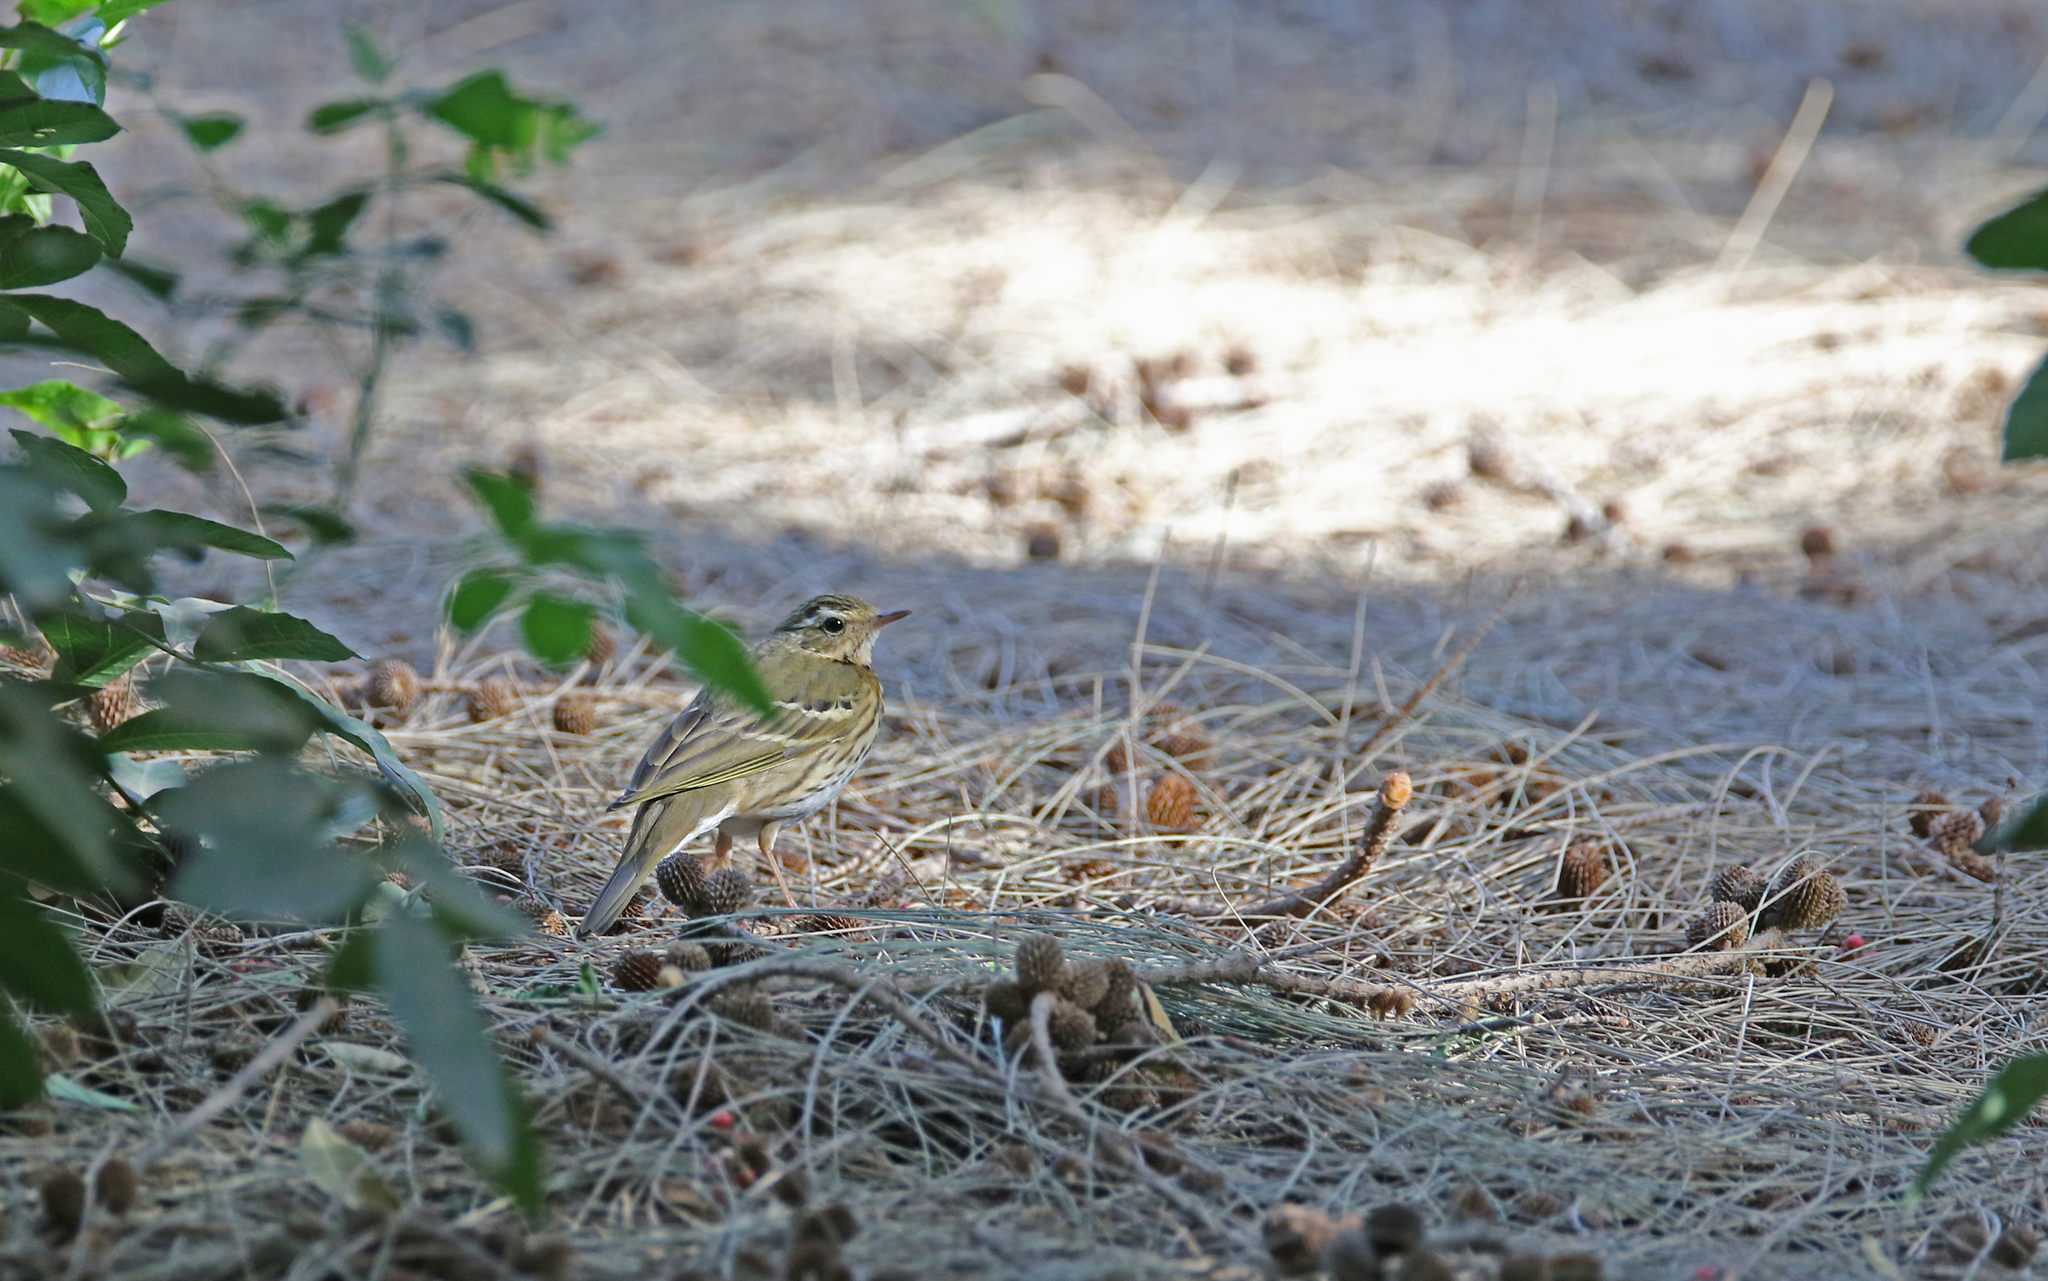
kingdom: Animalia
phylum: Chordata
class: Aves
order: Passeriformes
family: Motacillidae
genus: Anthus
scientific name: Anthus hodgsoni
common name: Olive-backed pipit
